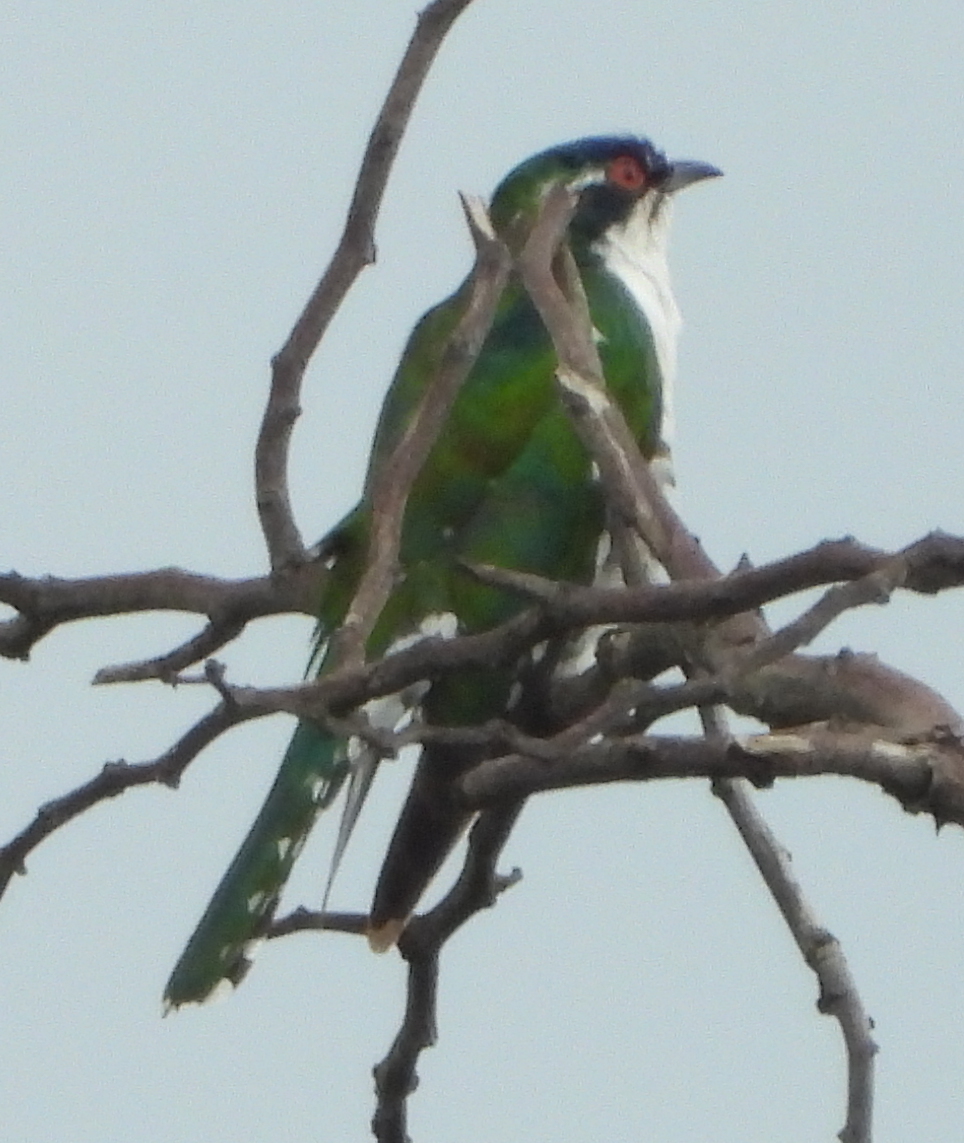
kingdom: Animalia
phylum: Chordata
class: Aves
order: Cuculiformes
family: Cuculidae
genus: Chrysococcyx
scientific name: Chrysococcyx caprius
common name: Diederik cuckoo
